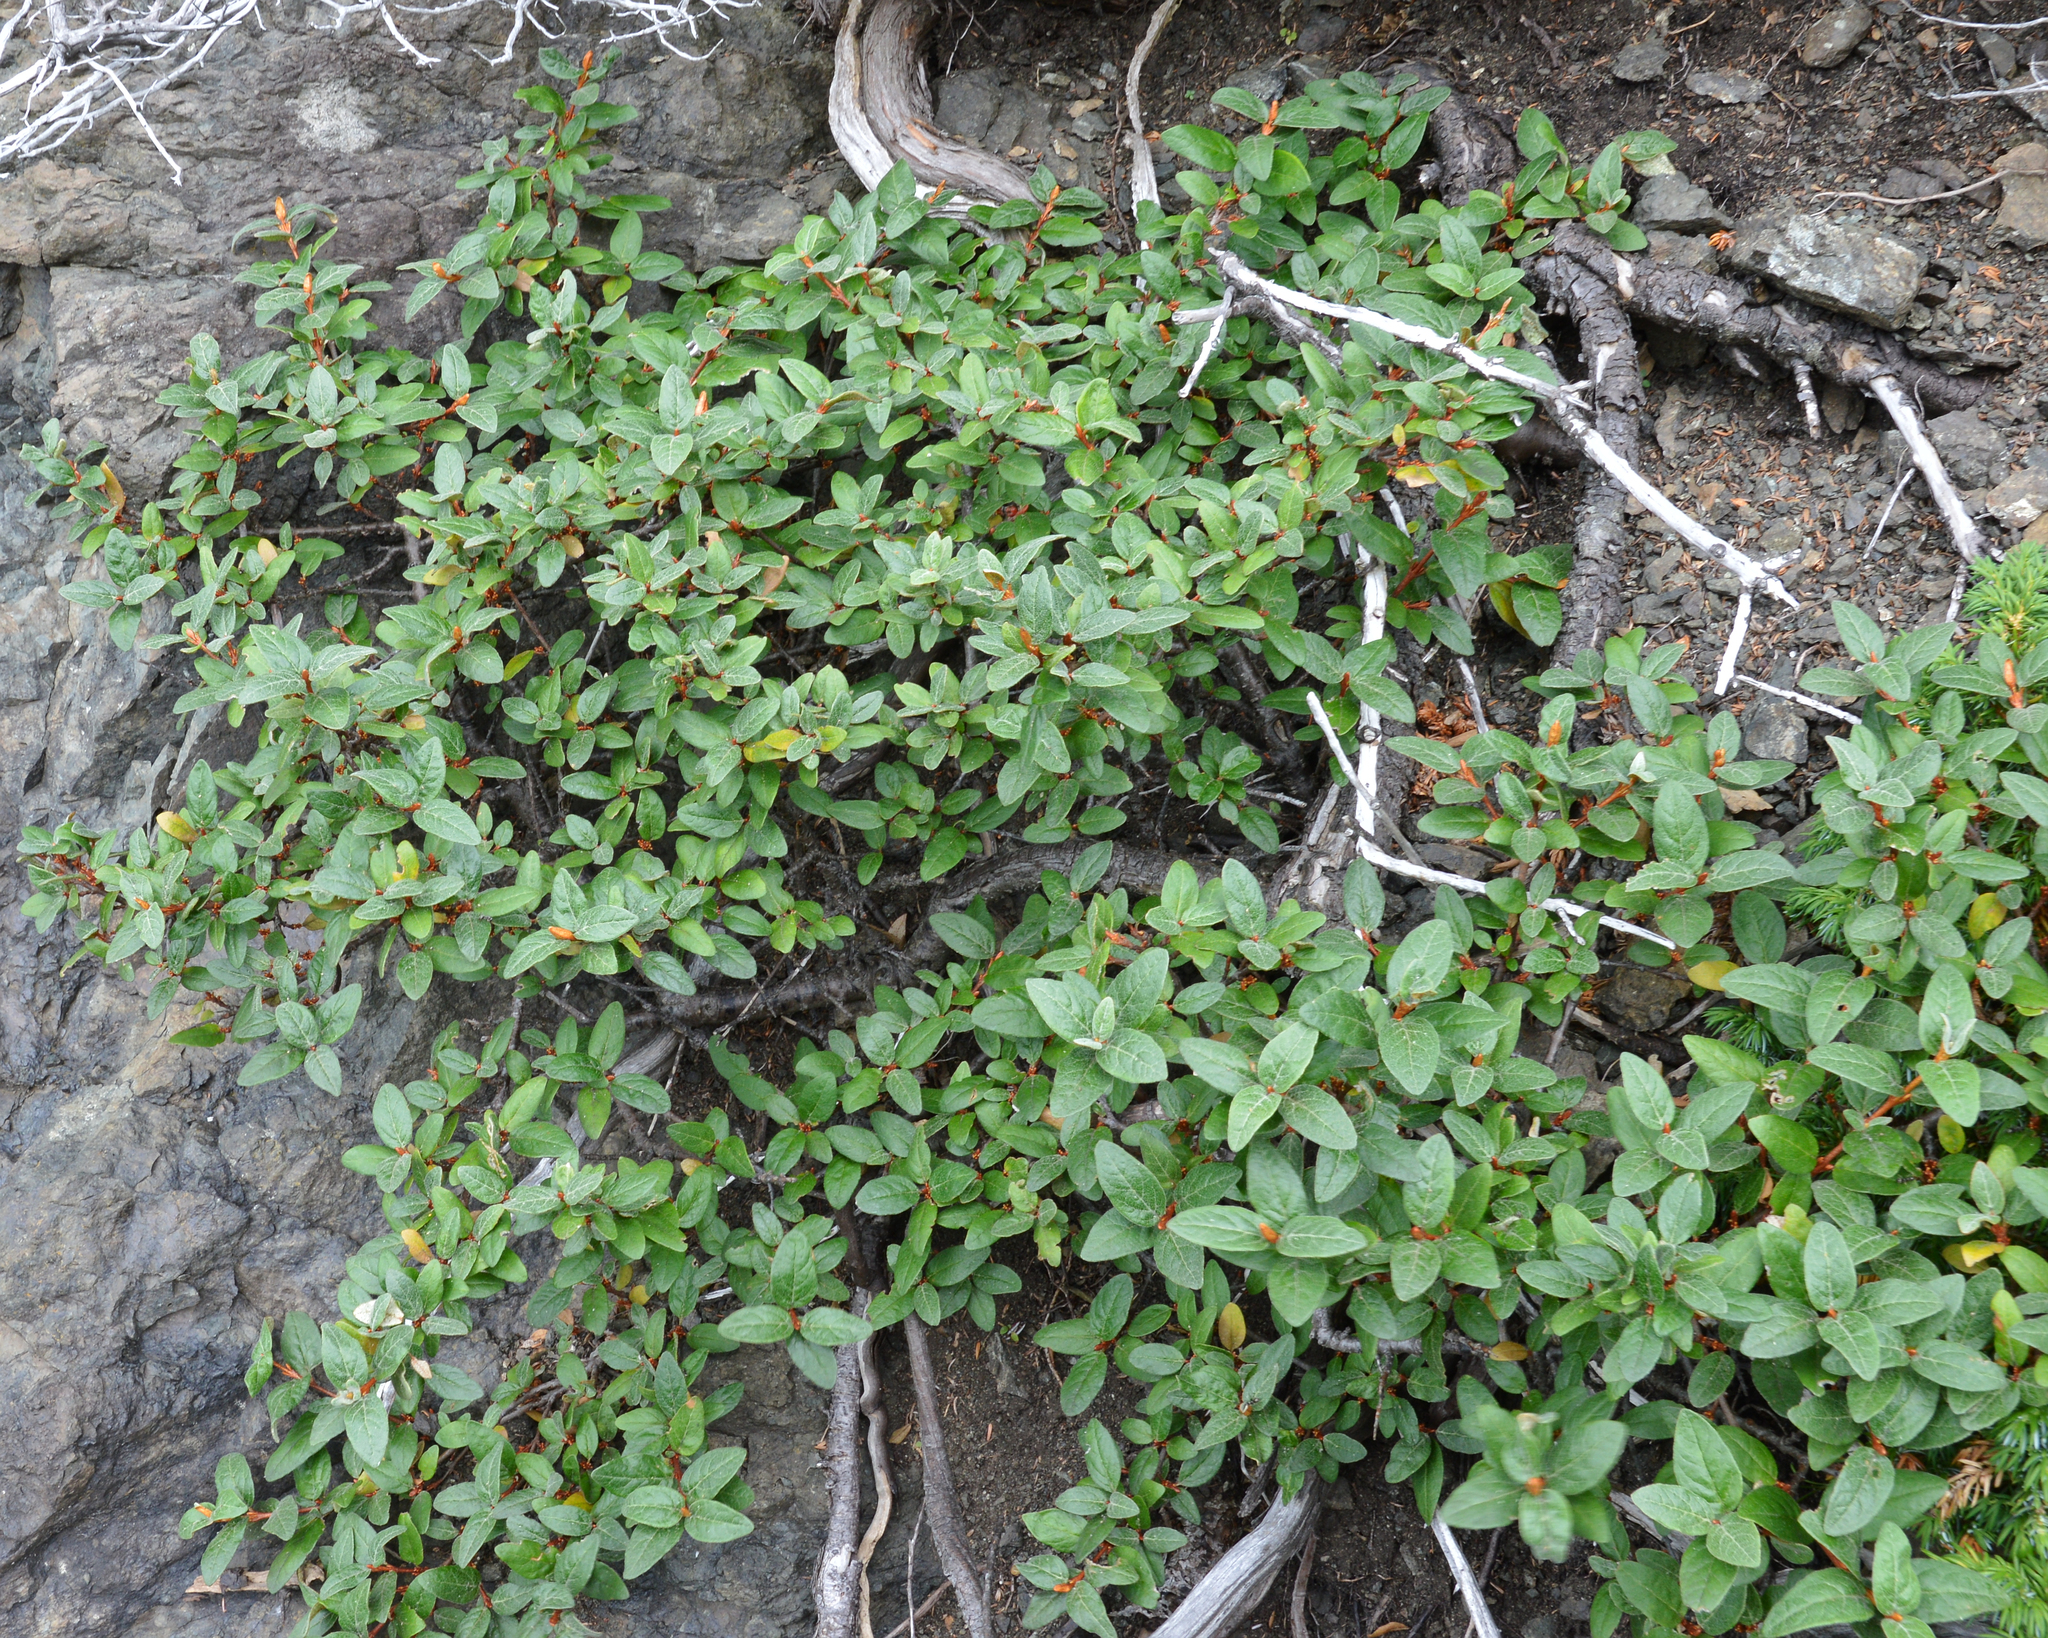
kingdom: Plantae
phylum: Tracheophyta
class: Magnoliopsida
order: Rosales
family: Elaeagnaceae
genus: Shepherdia
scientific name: Shepherdia canadensis
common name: Soapberry
